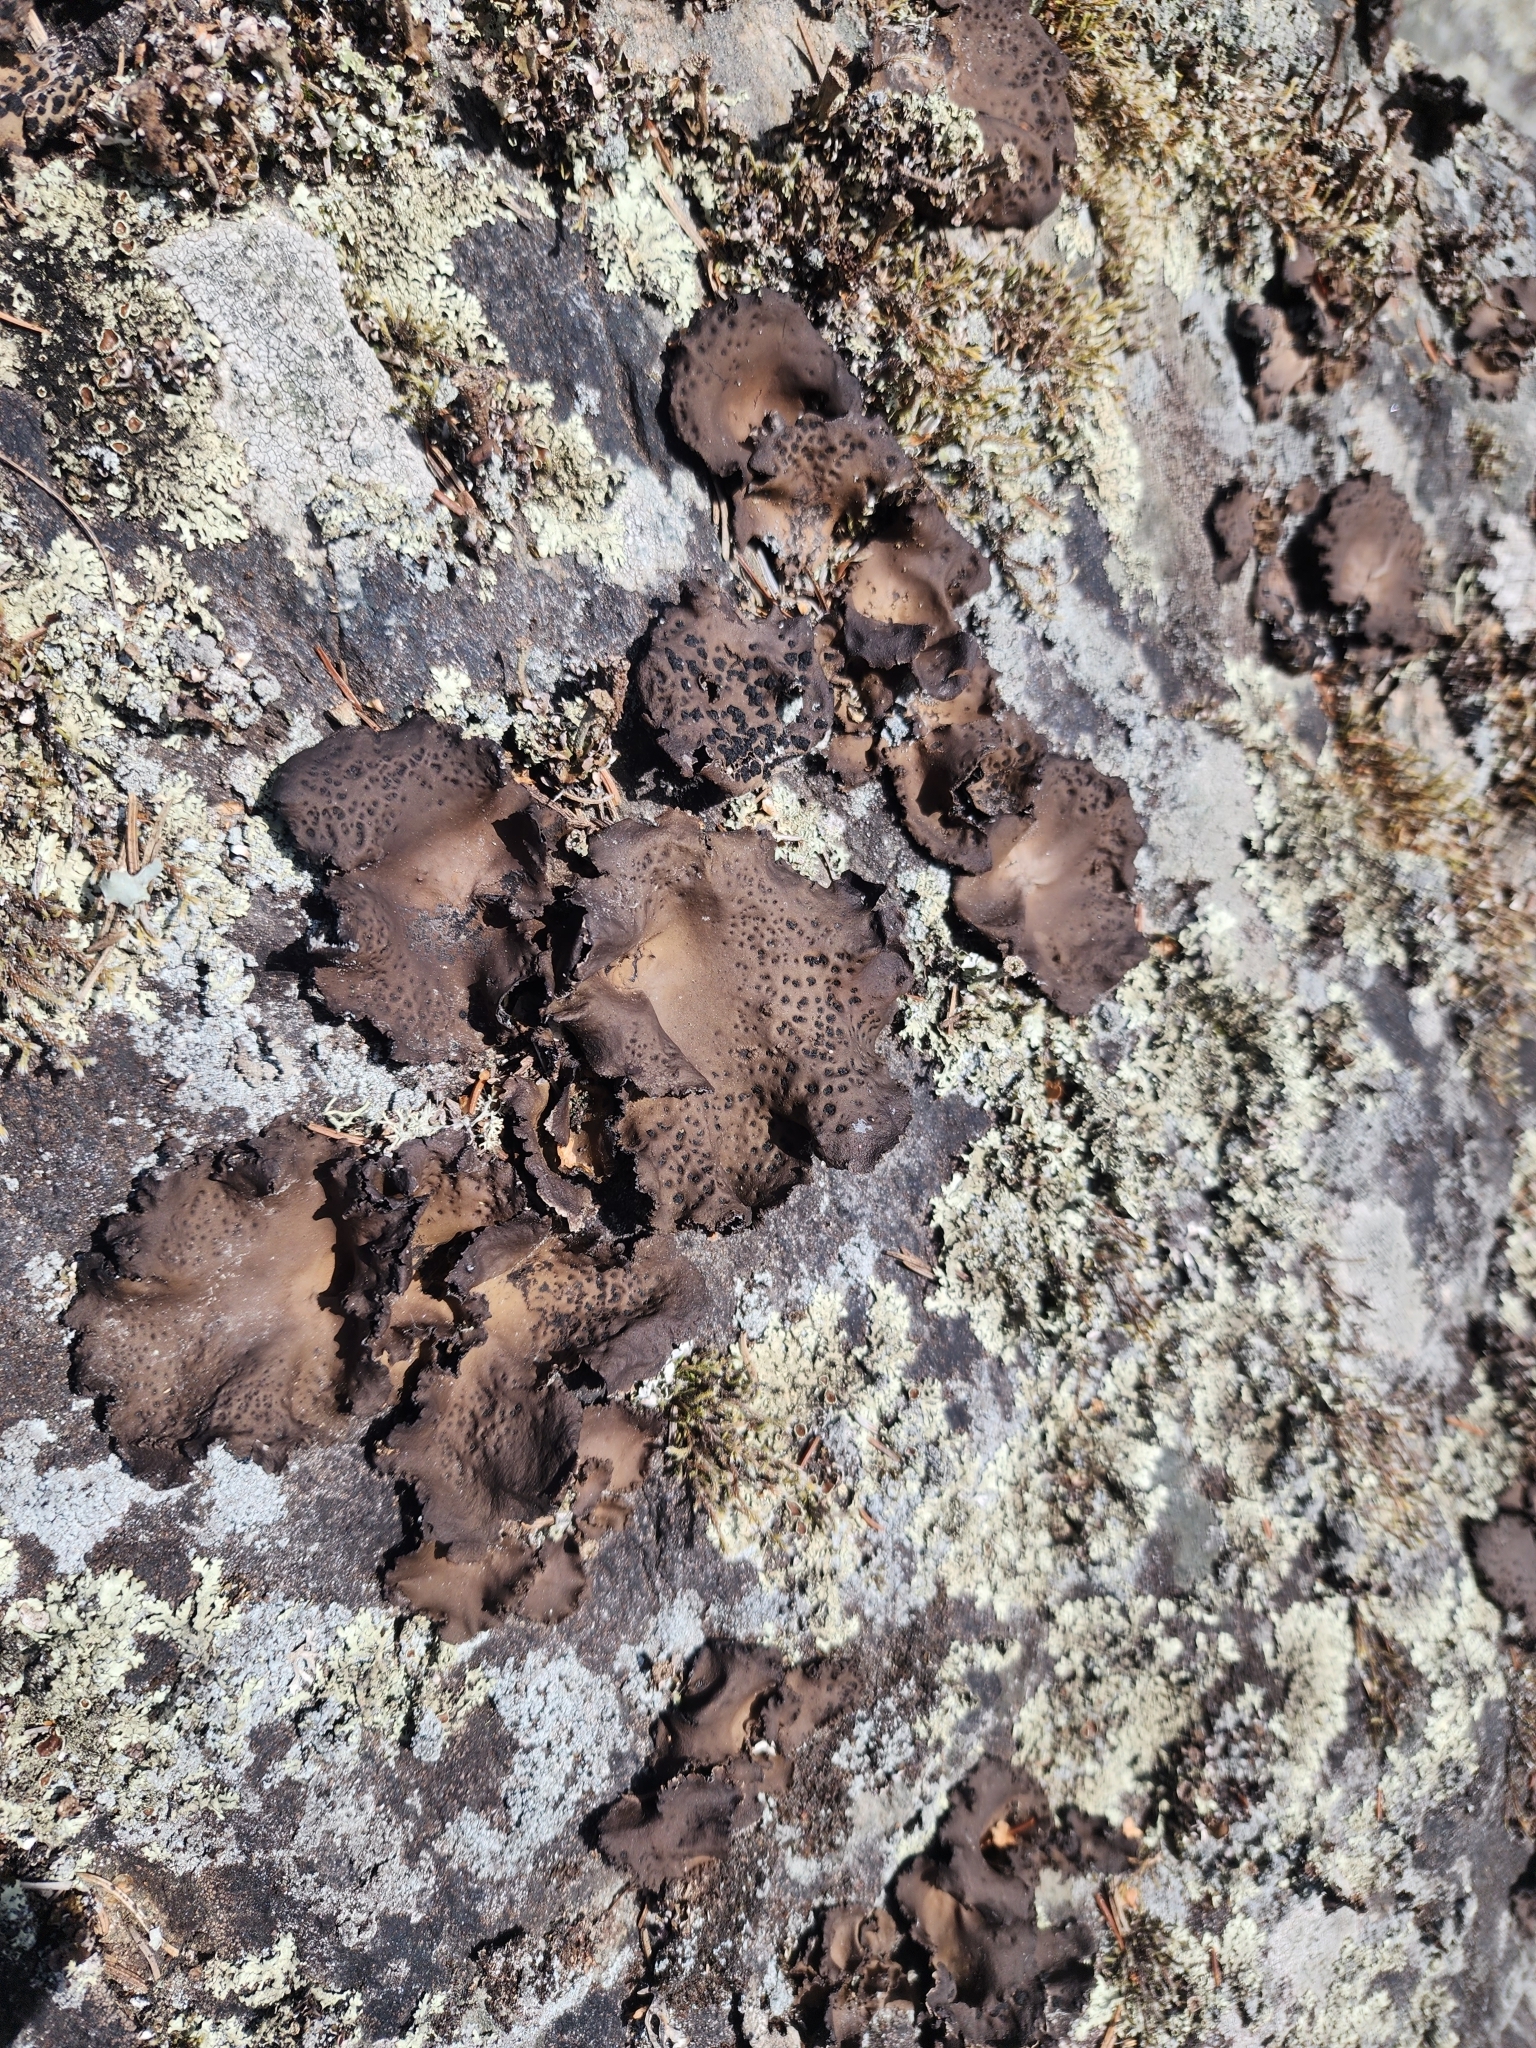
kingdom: Fungi
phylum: Ascomycota
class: Lecanoromycetes
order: Umbilicariales
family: Umbilicariaceae
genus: Umbilicaria
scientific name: Umbilicaria muhlenbergii
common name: Lesser rocktripe
